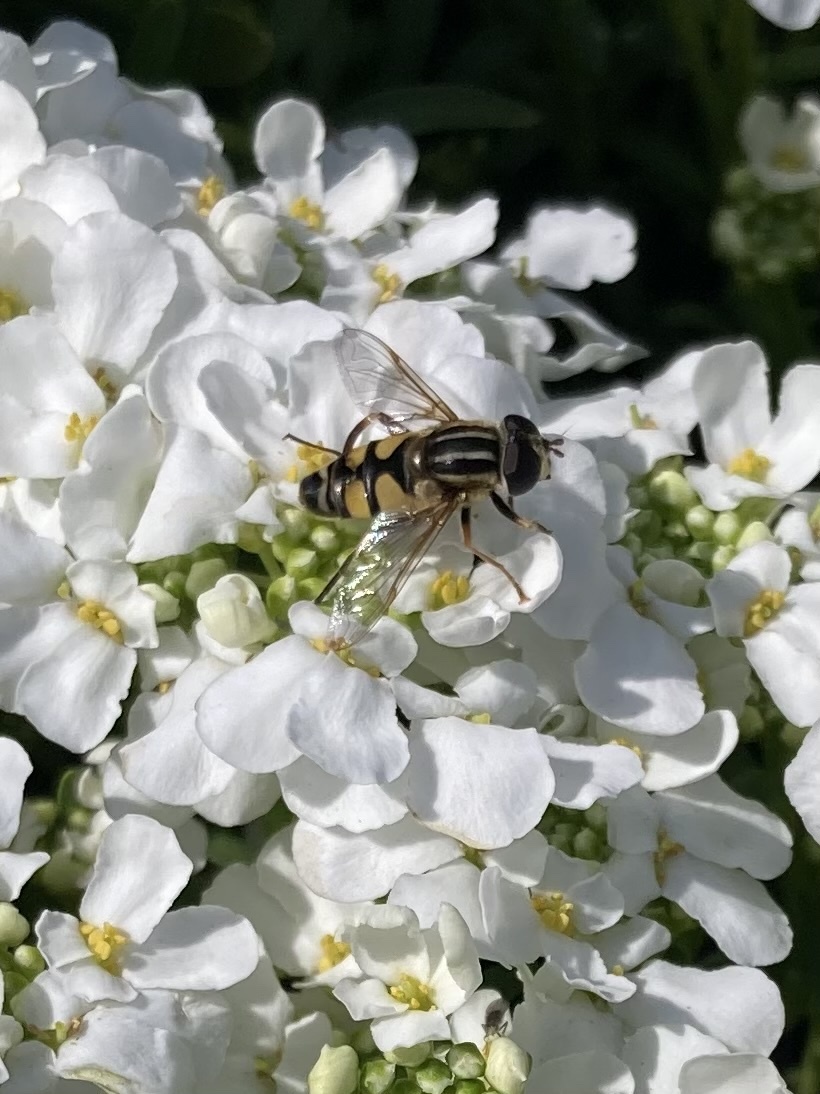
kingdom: Animalia
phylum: Arthropoda
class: Insecta
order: Diptera
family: Syrphidae
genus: Helophilus
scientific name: Helophilus fasciatus
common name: Narrow-headed marsh fly
